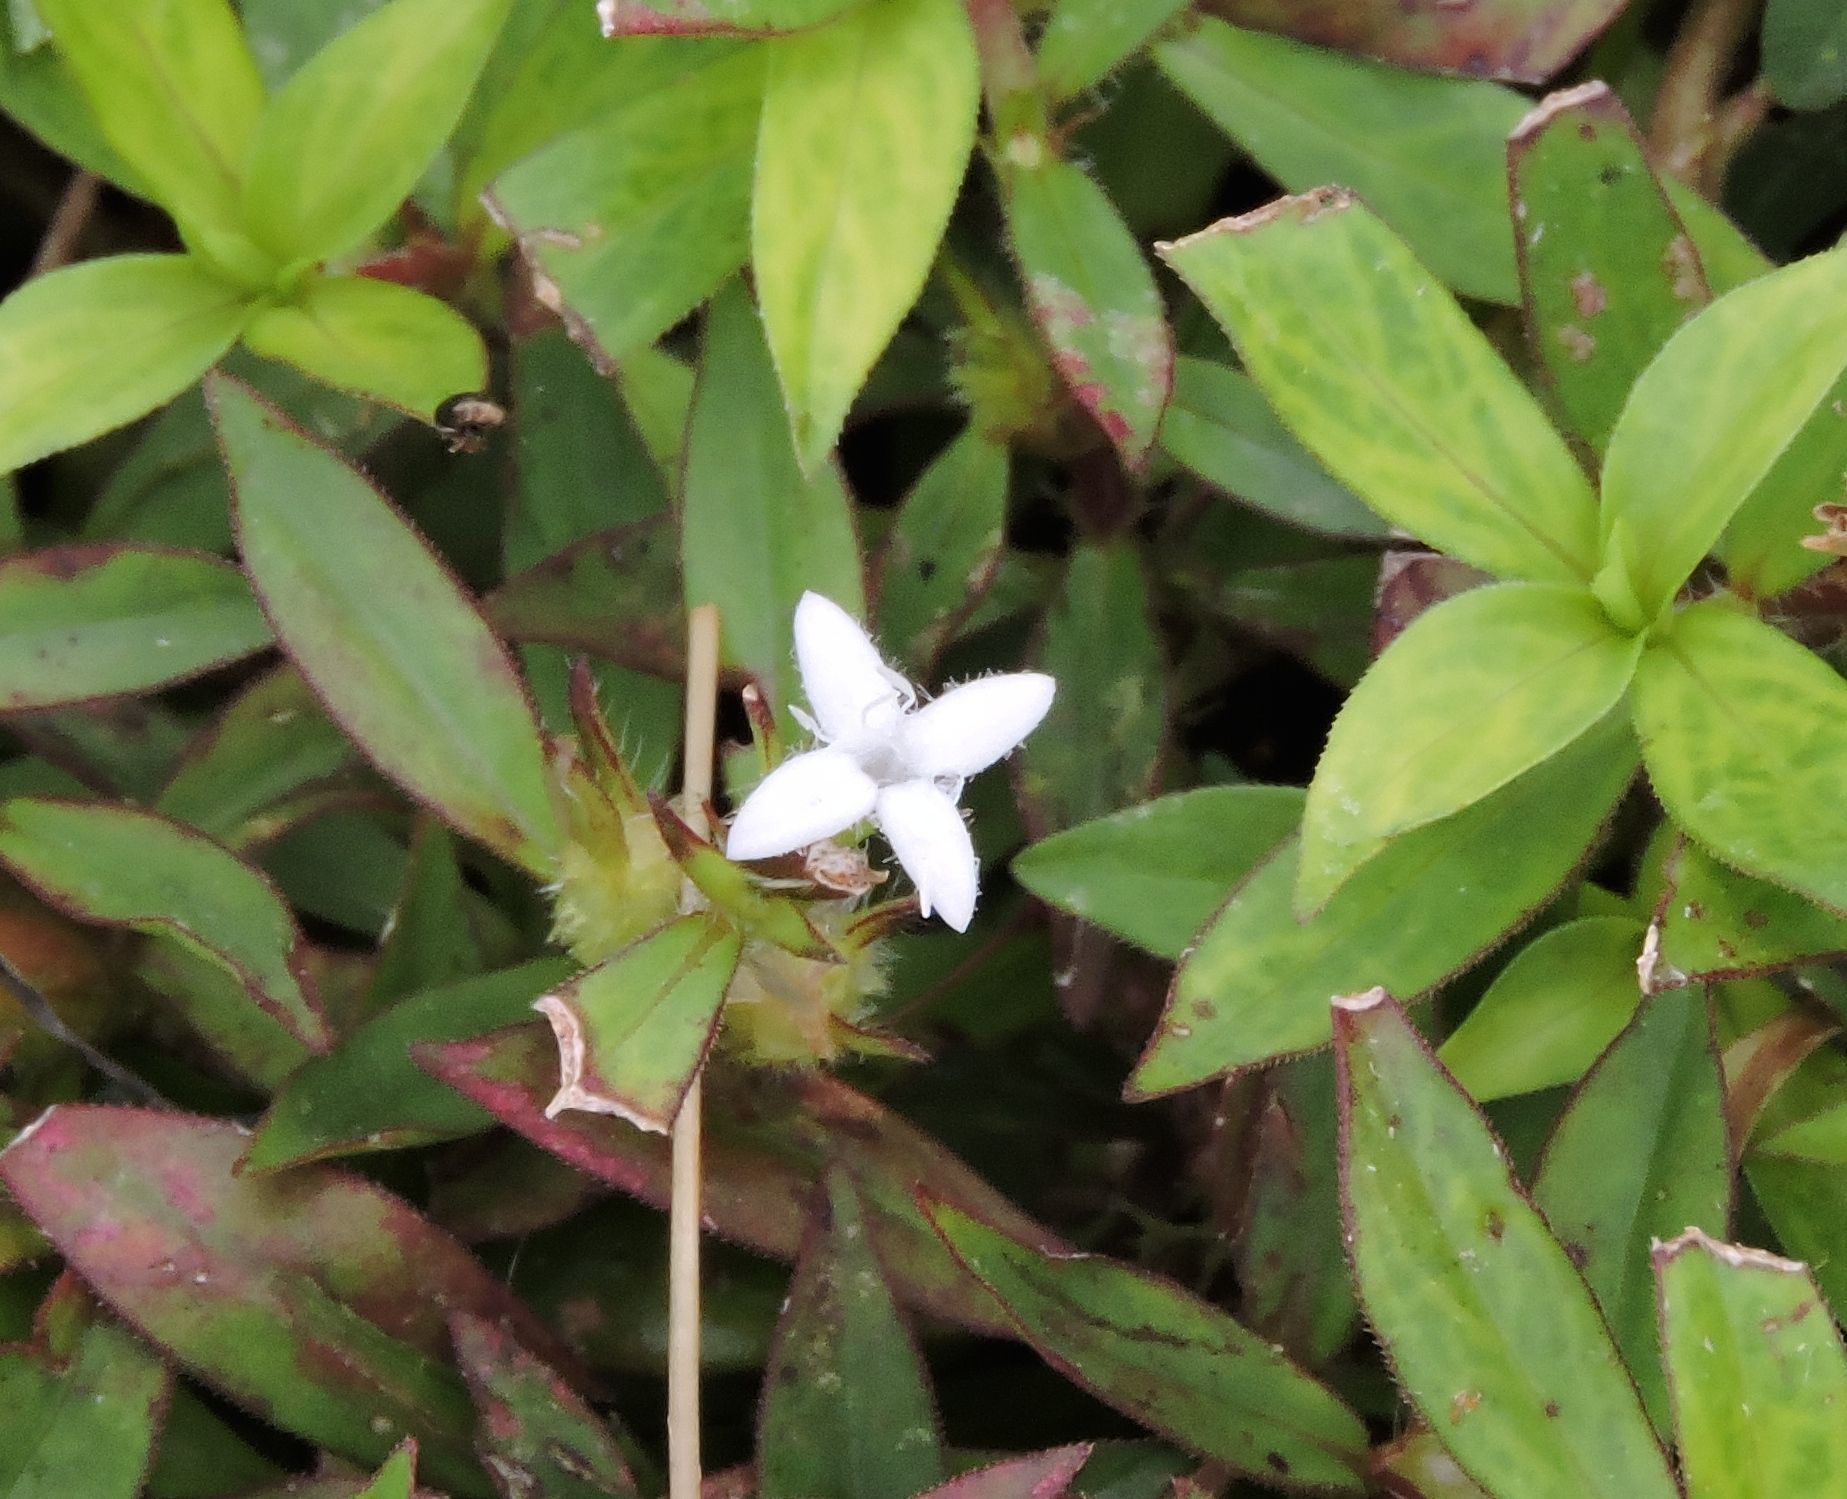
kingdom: Plantae
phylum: Tracheophyta
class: Magnoliopsida
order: Gentianales
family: Rubiaceae
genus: Diodia
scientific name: Diodia virginiana
